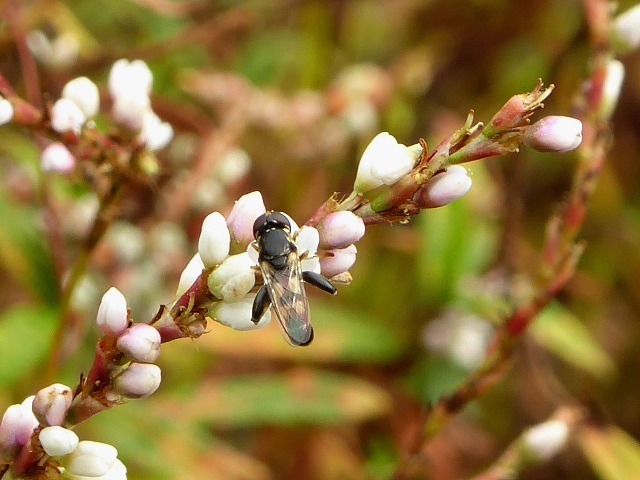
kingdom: Animalia
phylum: Arthropoda
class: Insecta
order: Diptera
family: Syrphidae
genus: Syritta
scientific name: Syritta pipiens
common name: Hover fly
